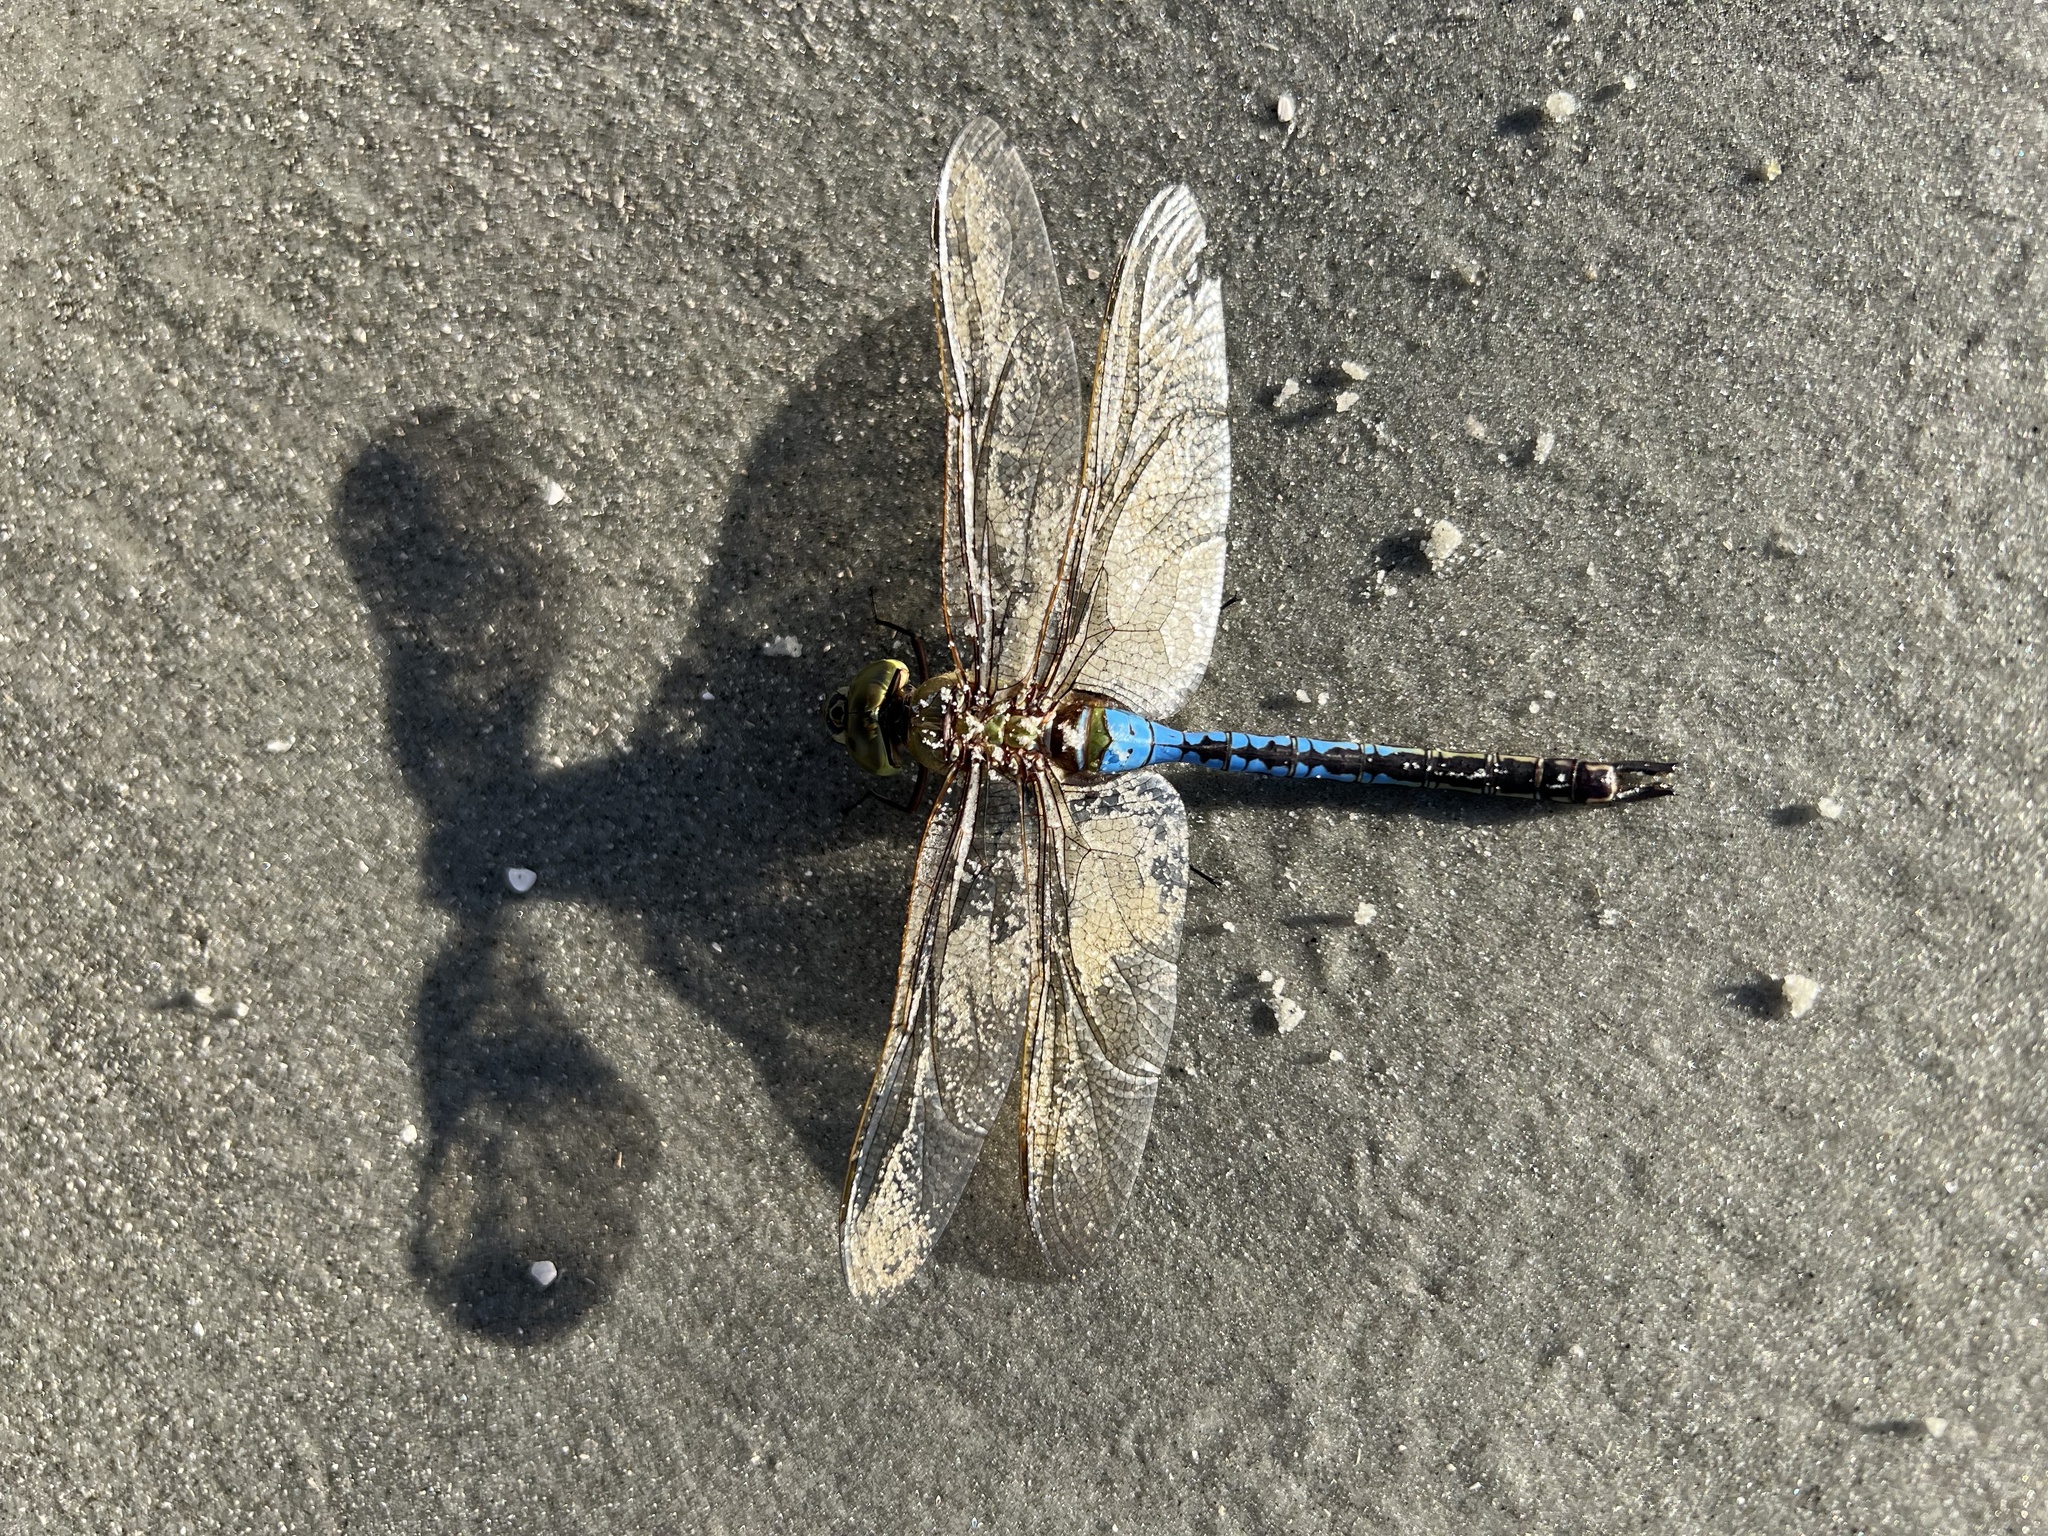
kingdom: Animalia
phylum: Arthropoda
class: Insecta
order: Odonata
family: Aeshnidae
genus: Anax
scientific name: Anax junius
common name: Common green darner
